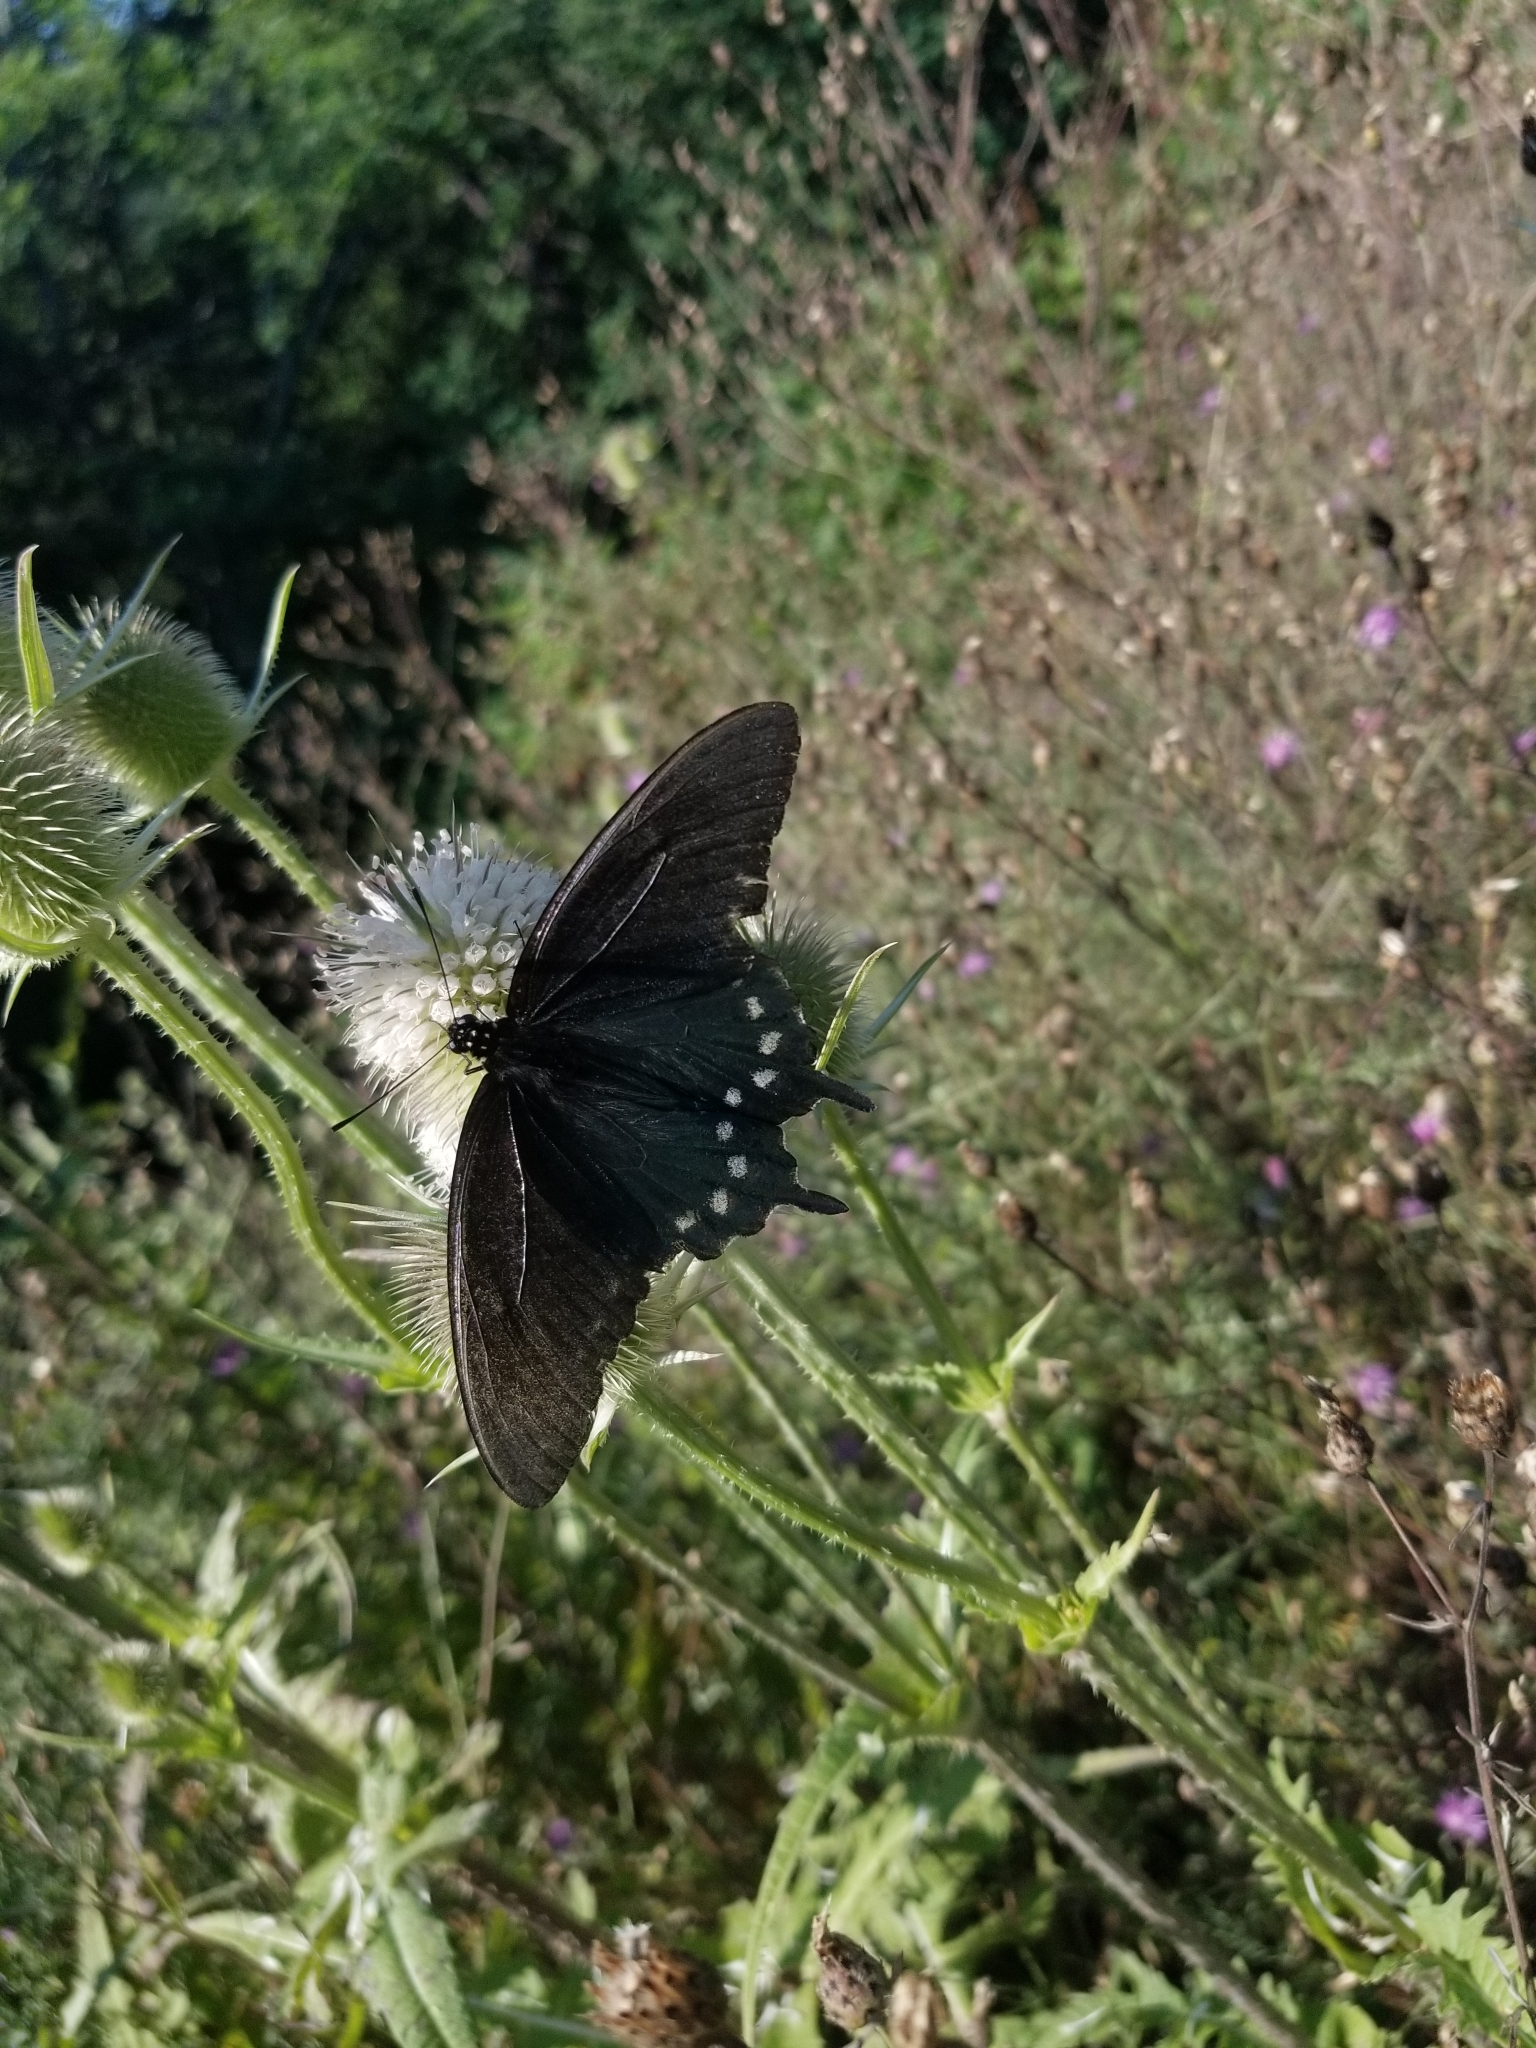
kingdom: Animalia
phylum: Arthropoda
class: Insecta
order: Lepidoptera
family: Papilionidae
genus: Battus
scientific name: Battus philenor
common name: Pipevine swallowtail
